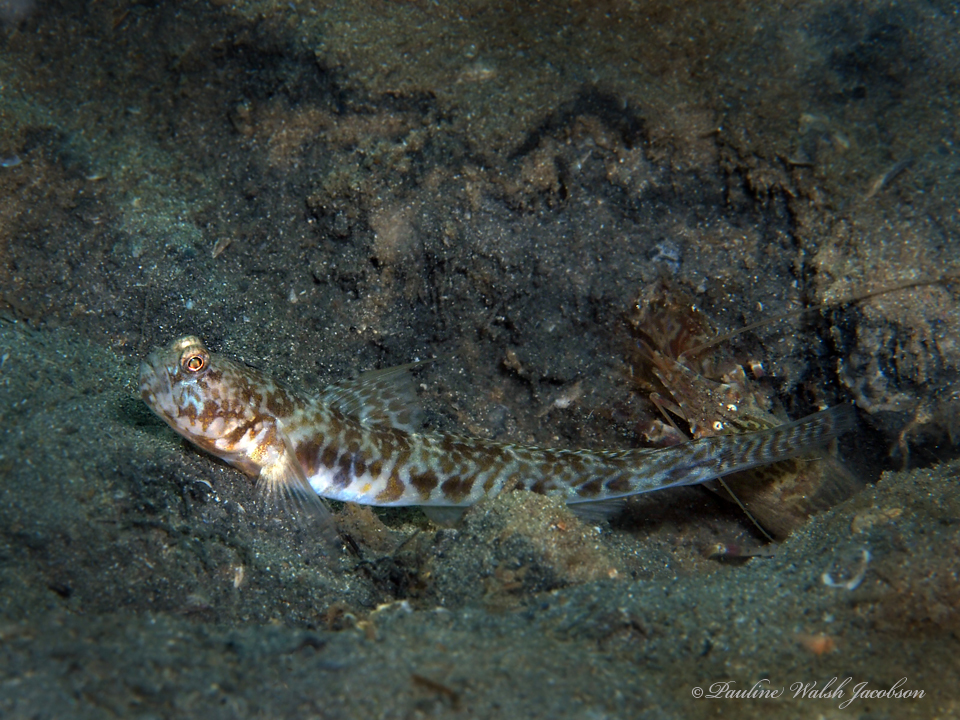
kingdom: Animalia
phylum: Chordata
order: Perciformes
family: Gobiidae
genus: Nes
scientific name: Nes longus
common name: Orangespotted goby
